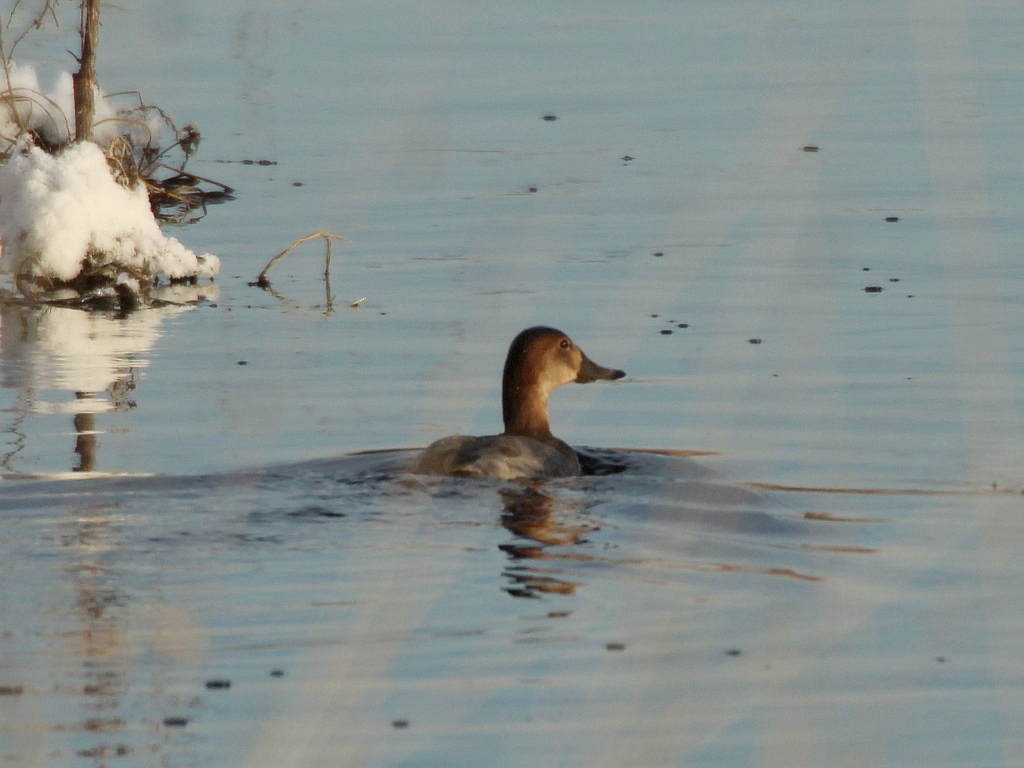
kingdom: Animalia
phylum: Chordata
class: Aves
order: Anseriformes
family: Anatidae
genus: Aythya
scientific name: Aythya ferina
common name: Common pochard
